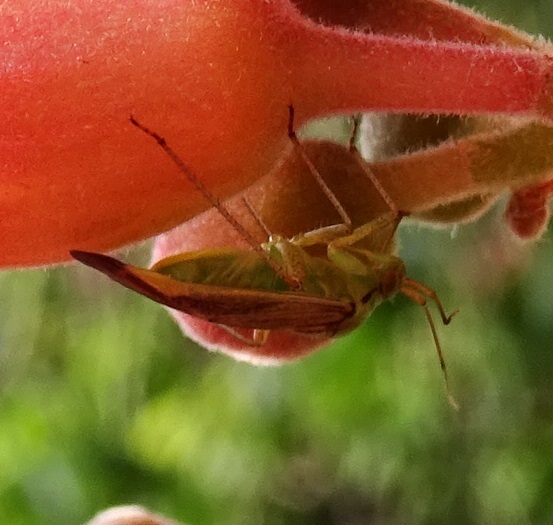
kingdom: Animalia
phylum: Arthropoda
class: Insecta
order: Hemiptera
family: Miridae
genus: Closterotomus
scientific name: Closterotomus trivialis
